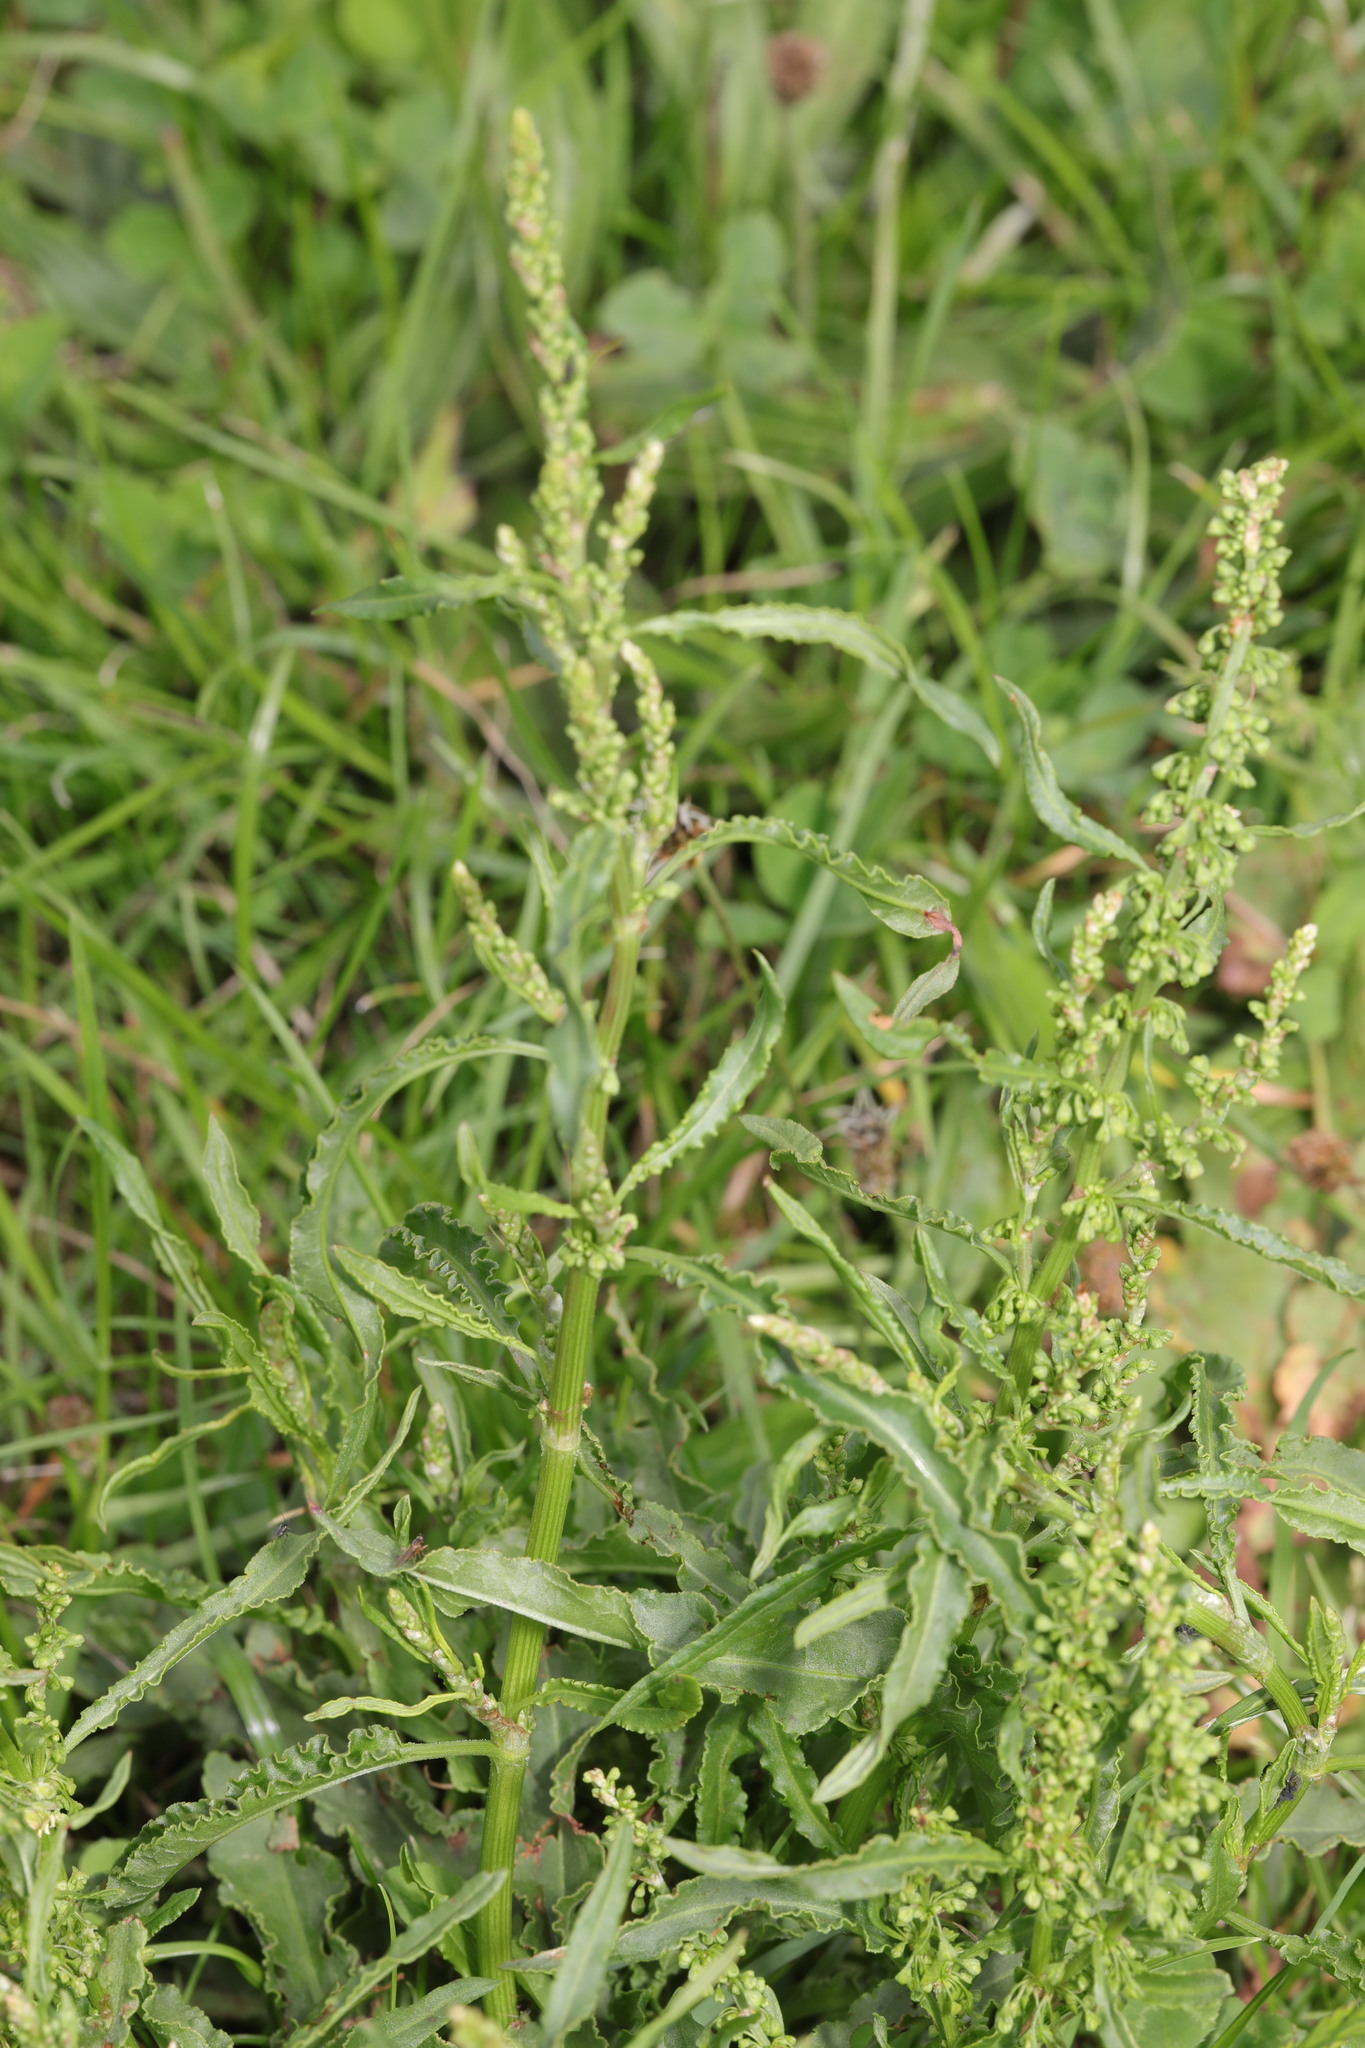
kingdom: Plantae
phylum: Tracheophyta
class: Magnoliopsida
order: Caryophyllales
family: Polygonaceae
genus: Rumex
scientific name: Rumex crispus
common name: Curled dock
